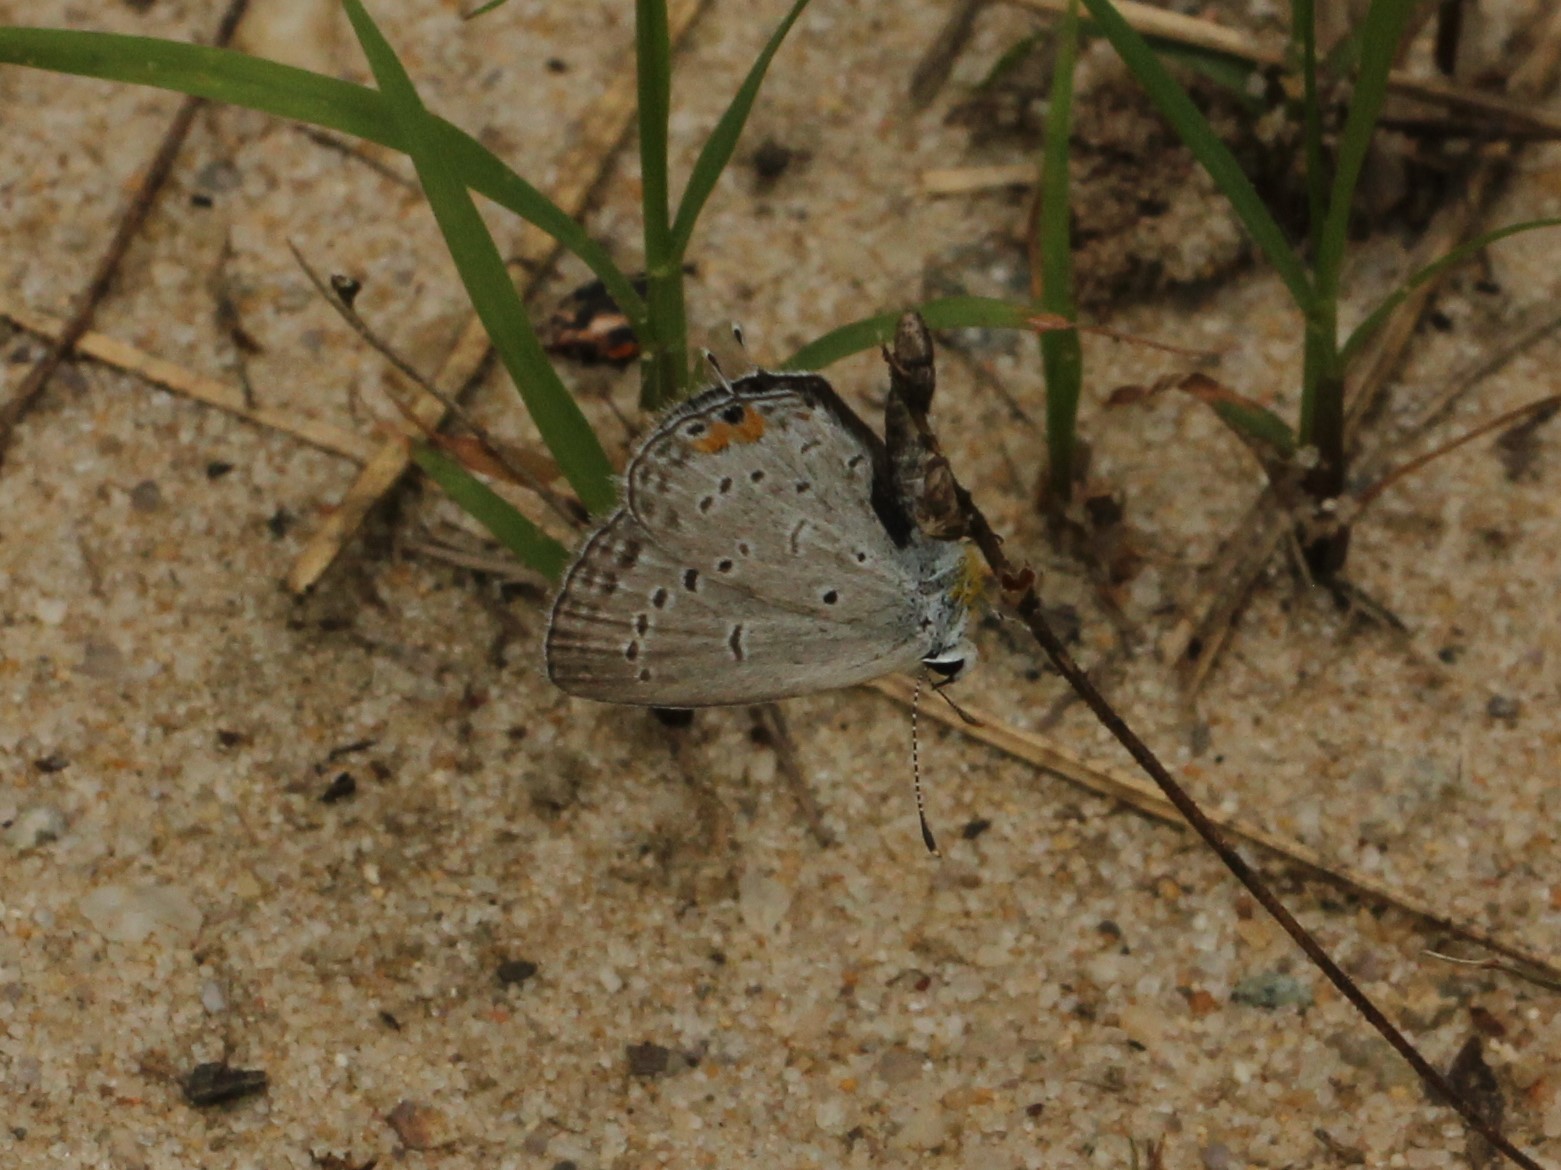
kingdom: Animalia
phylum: Arthropoda
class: Insecta
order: Lepidoptera
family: Lycaenidae
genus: Elkalyce
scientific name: Elkalyce comyntas
